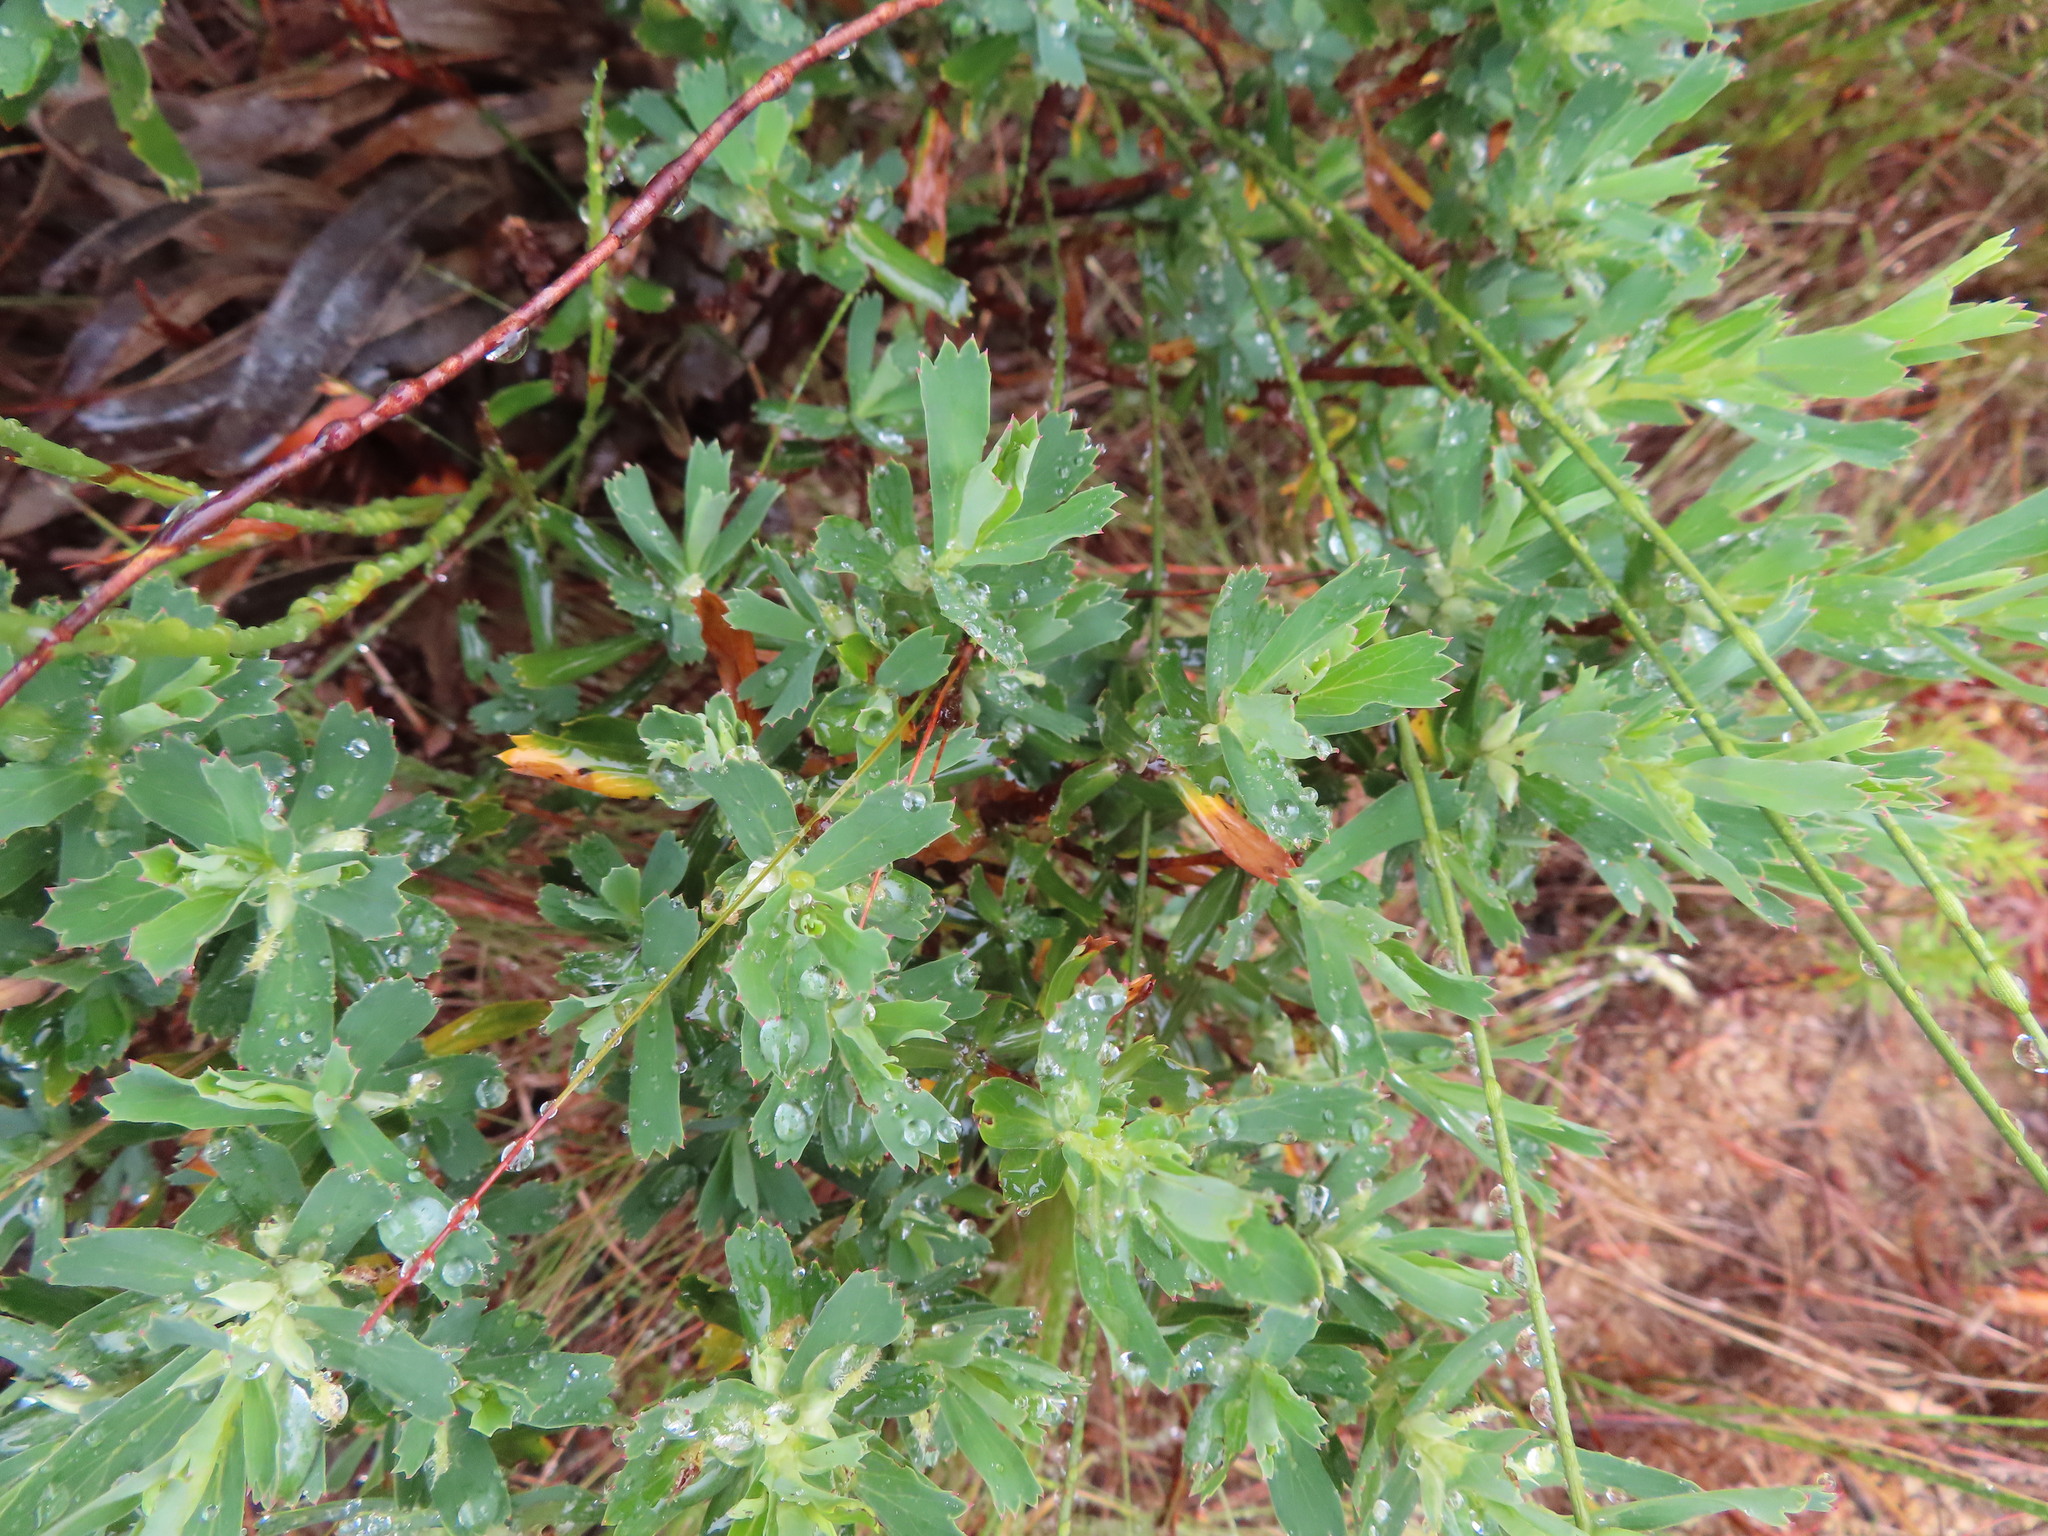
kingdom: Plantae
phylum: Tracheophyta
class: Magnoliopsida
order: Rosales
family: Rosaceae
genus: Cliffortia
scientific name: Cliffortia cuneata
